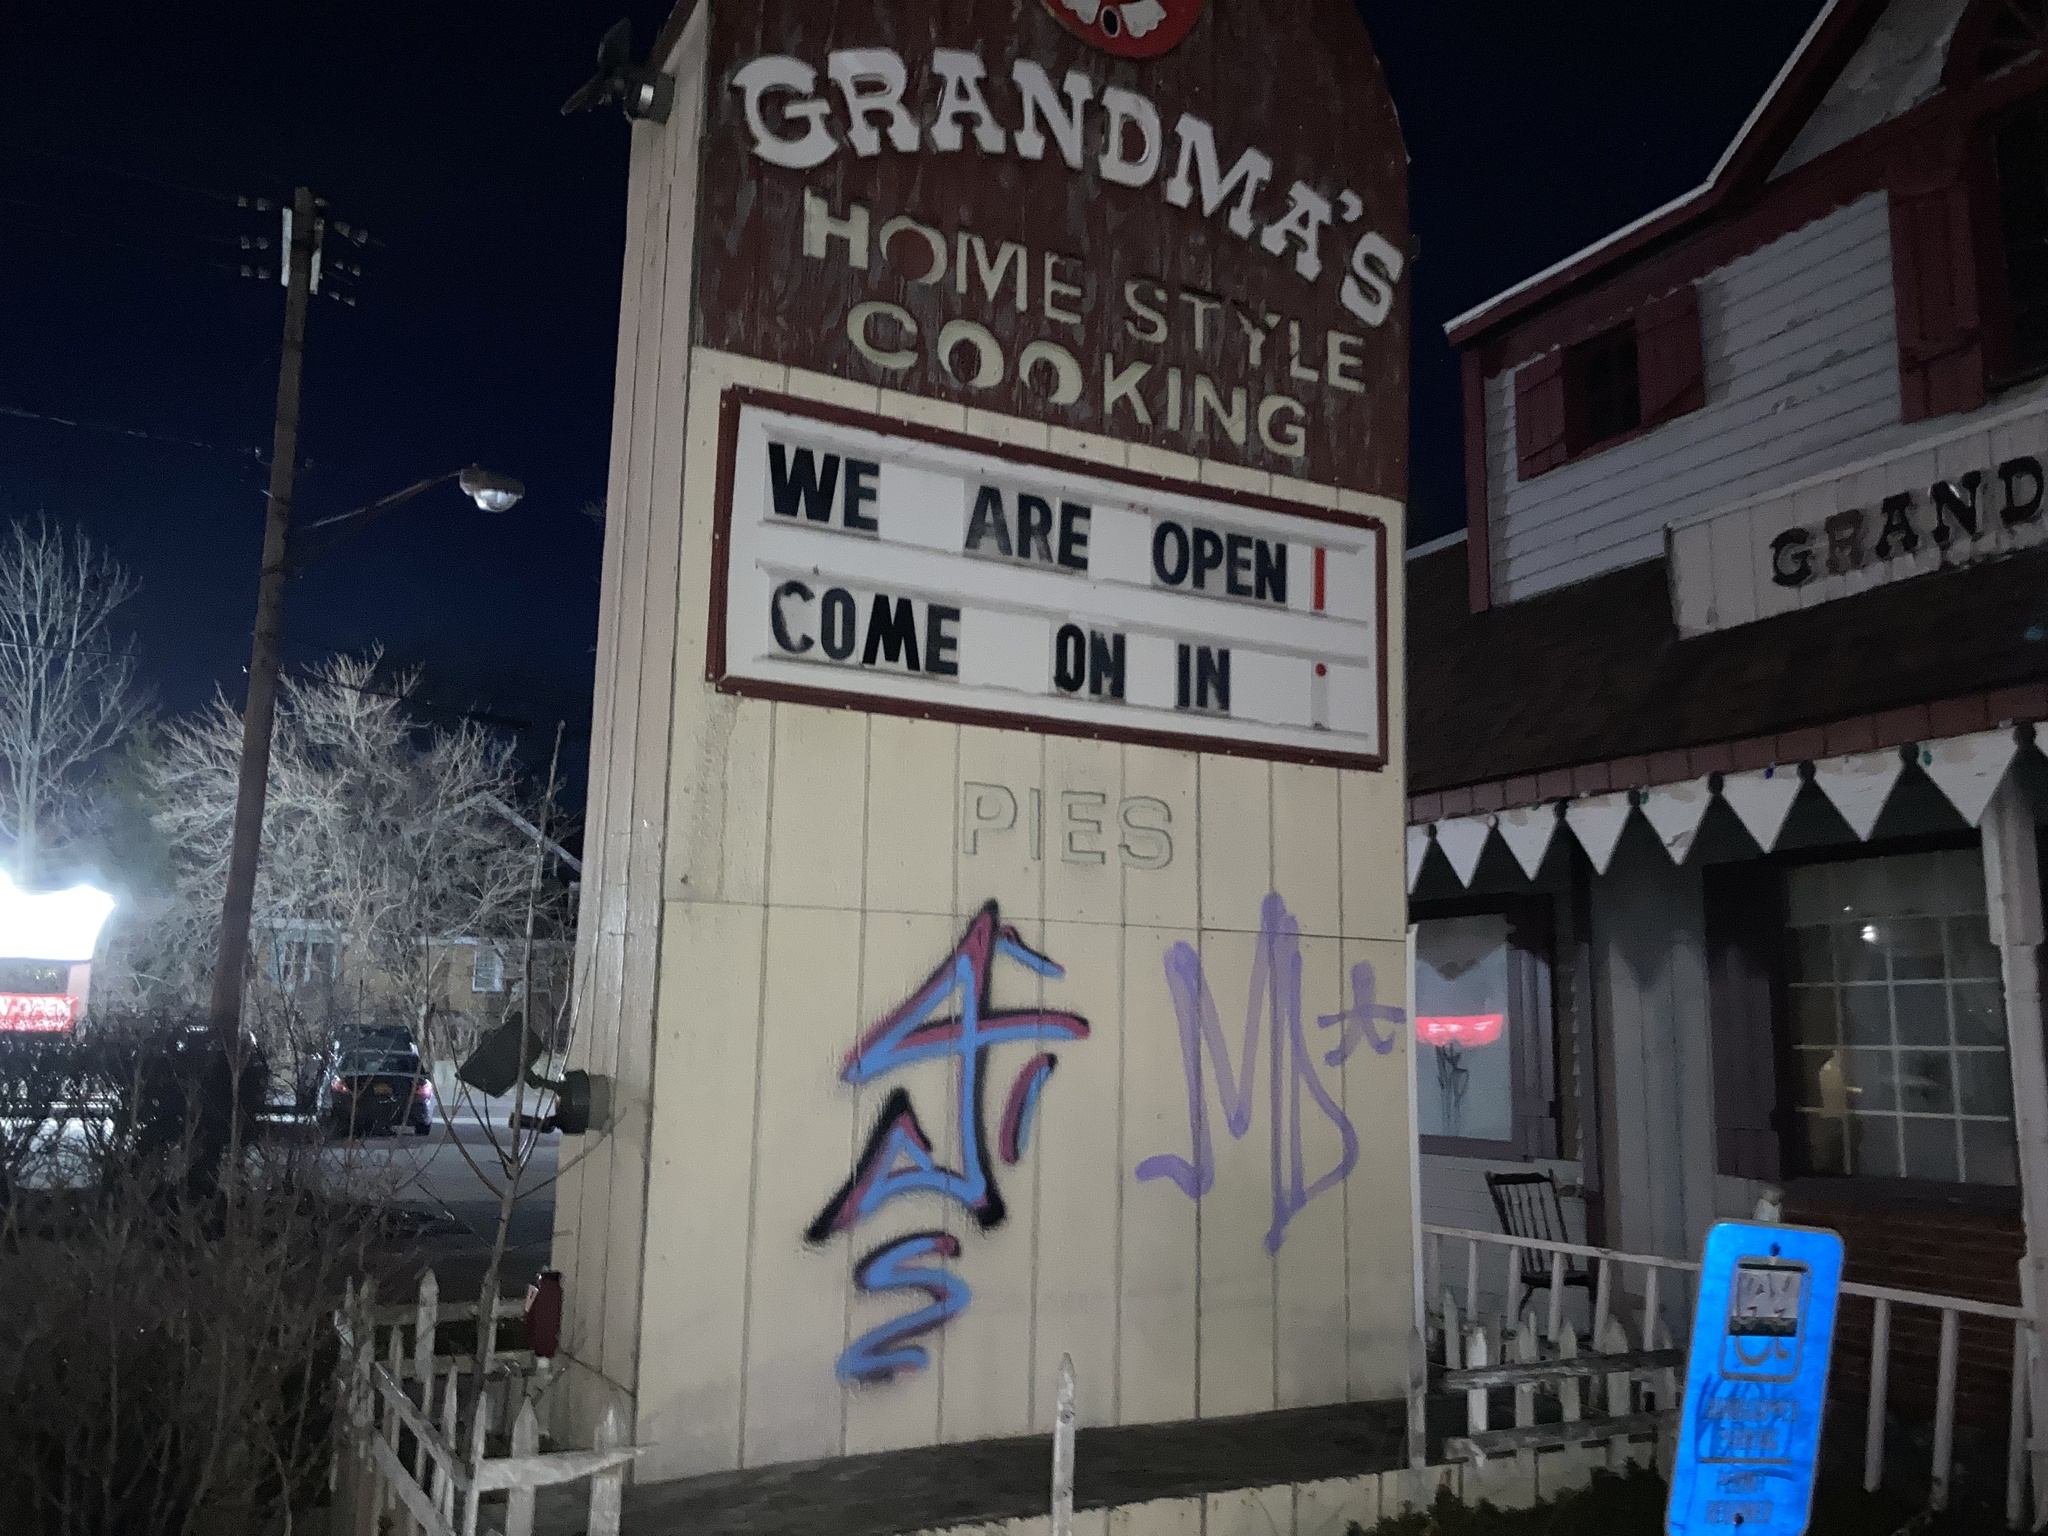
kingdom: Plantae
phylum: Tracheophyta
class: Magnoliopsida
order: Lamiales
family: Plantaginaceae
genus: Plantago
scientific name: Plantago lanceolata
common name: Ribwort plantain
